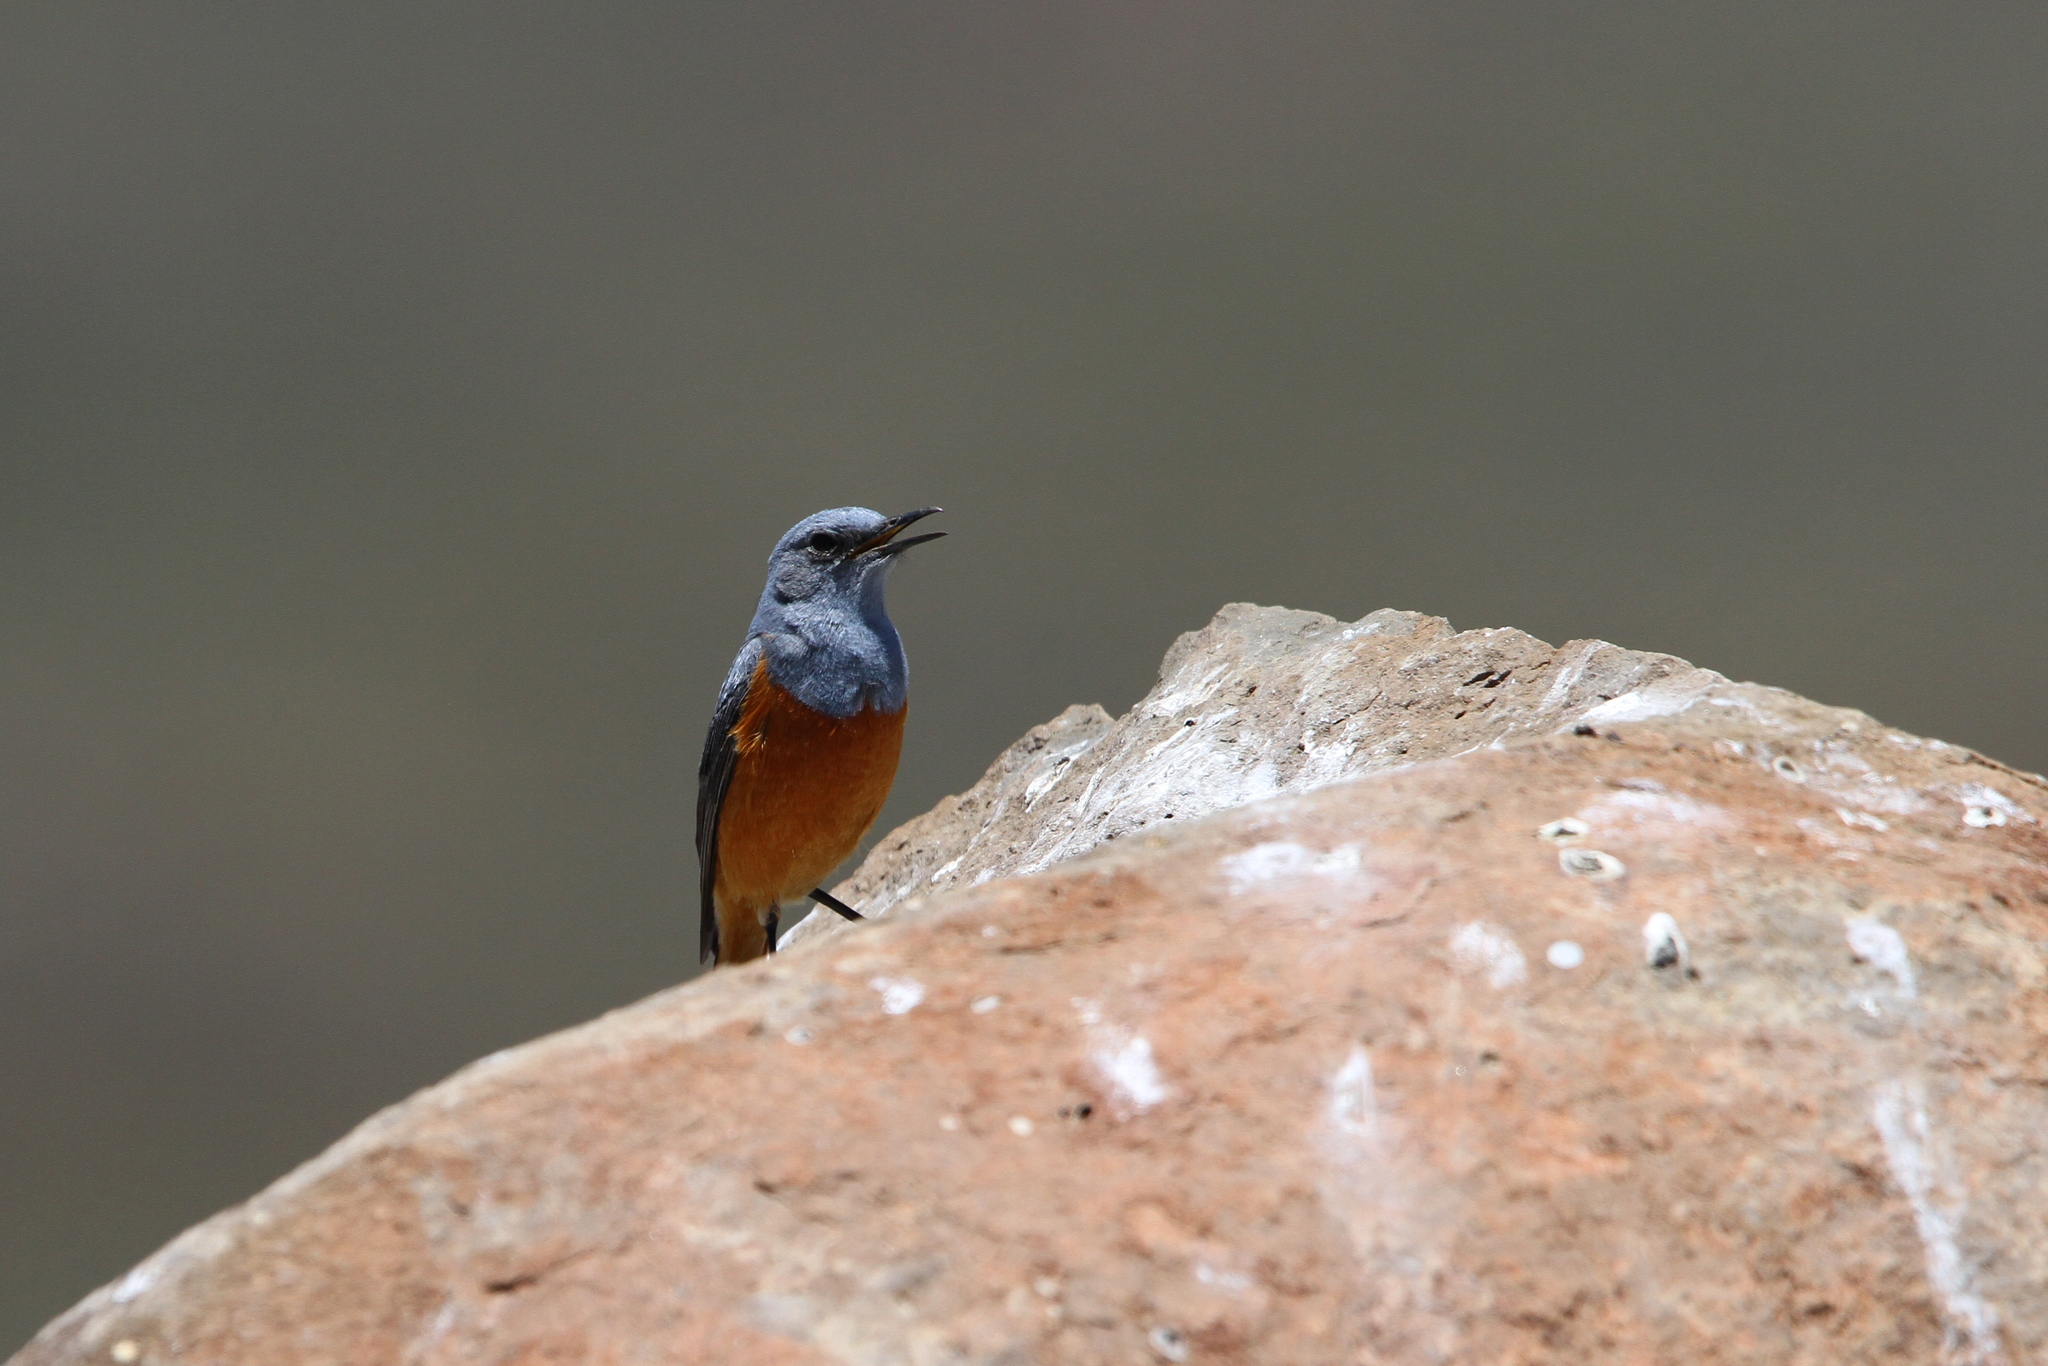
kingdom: Animalia
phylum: Chordata
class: Aves
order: Passeriformes
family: Muscicapidae
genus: Monticola
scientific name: Monticola explorator
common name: Sentinel rock thrush
